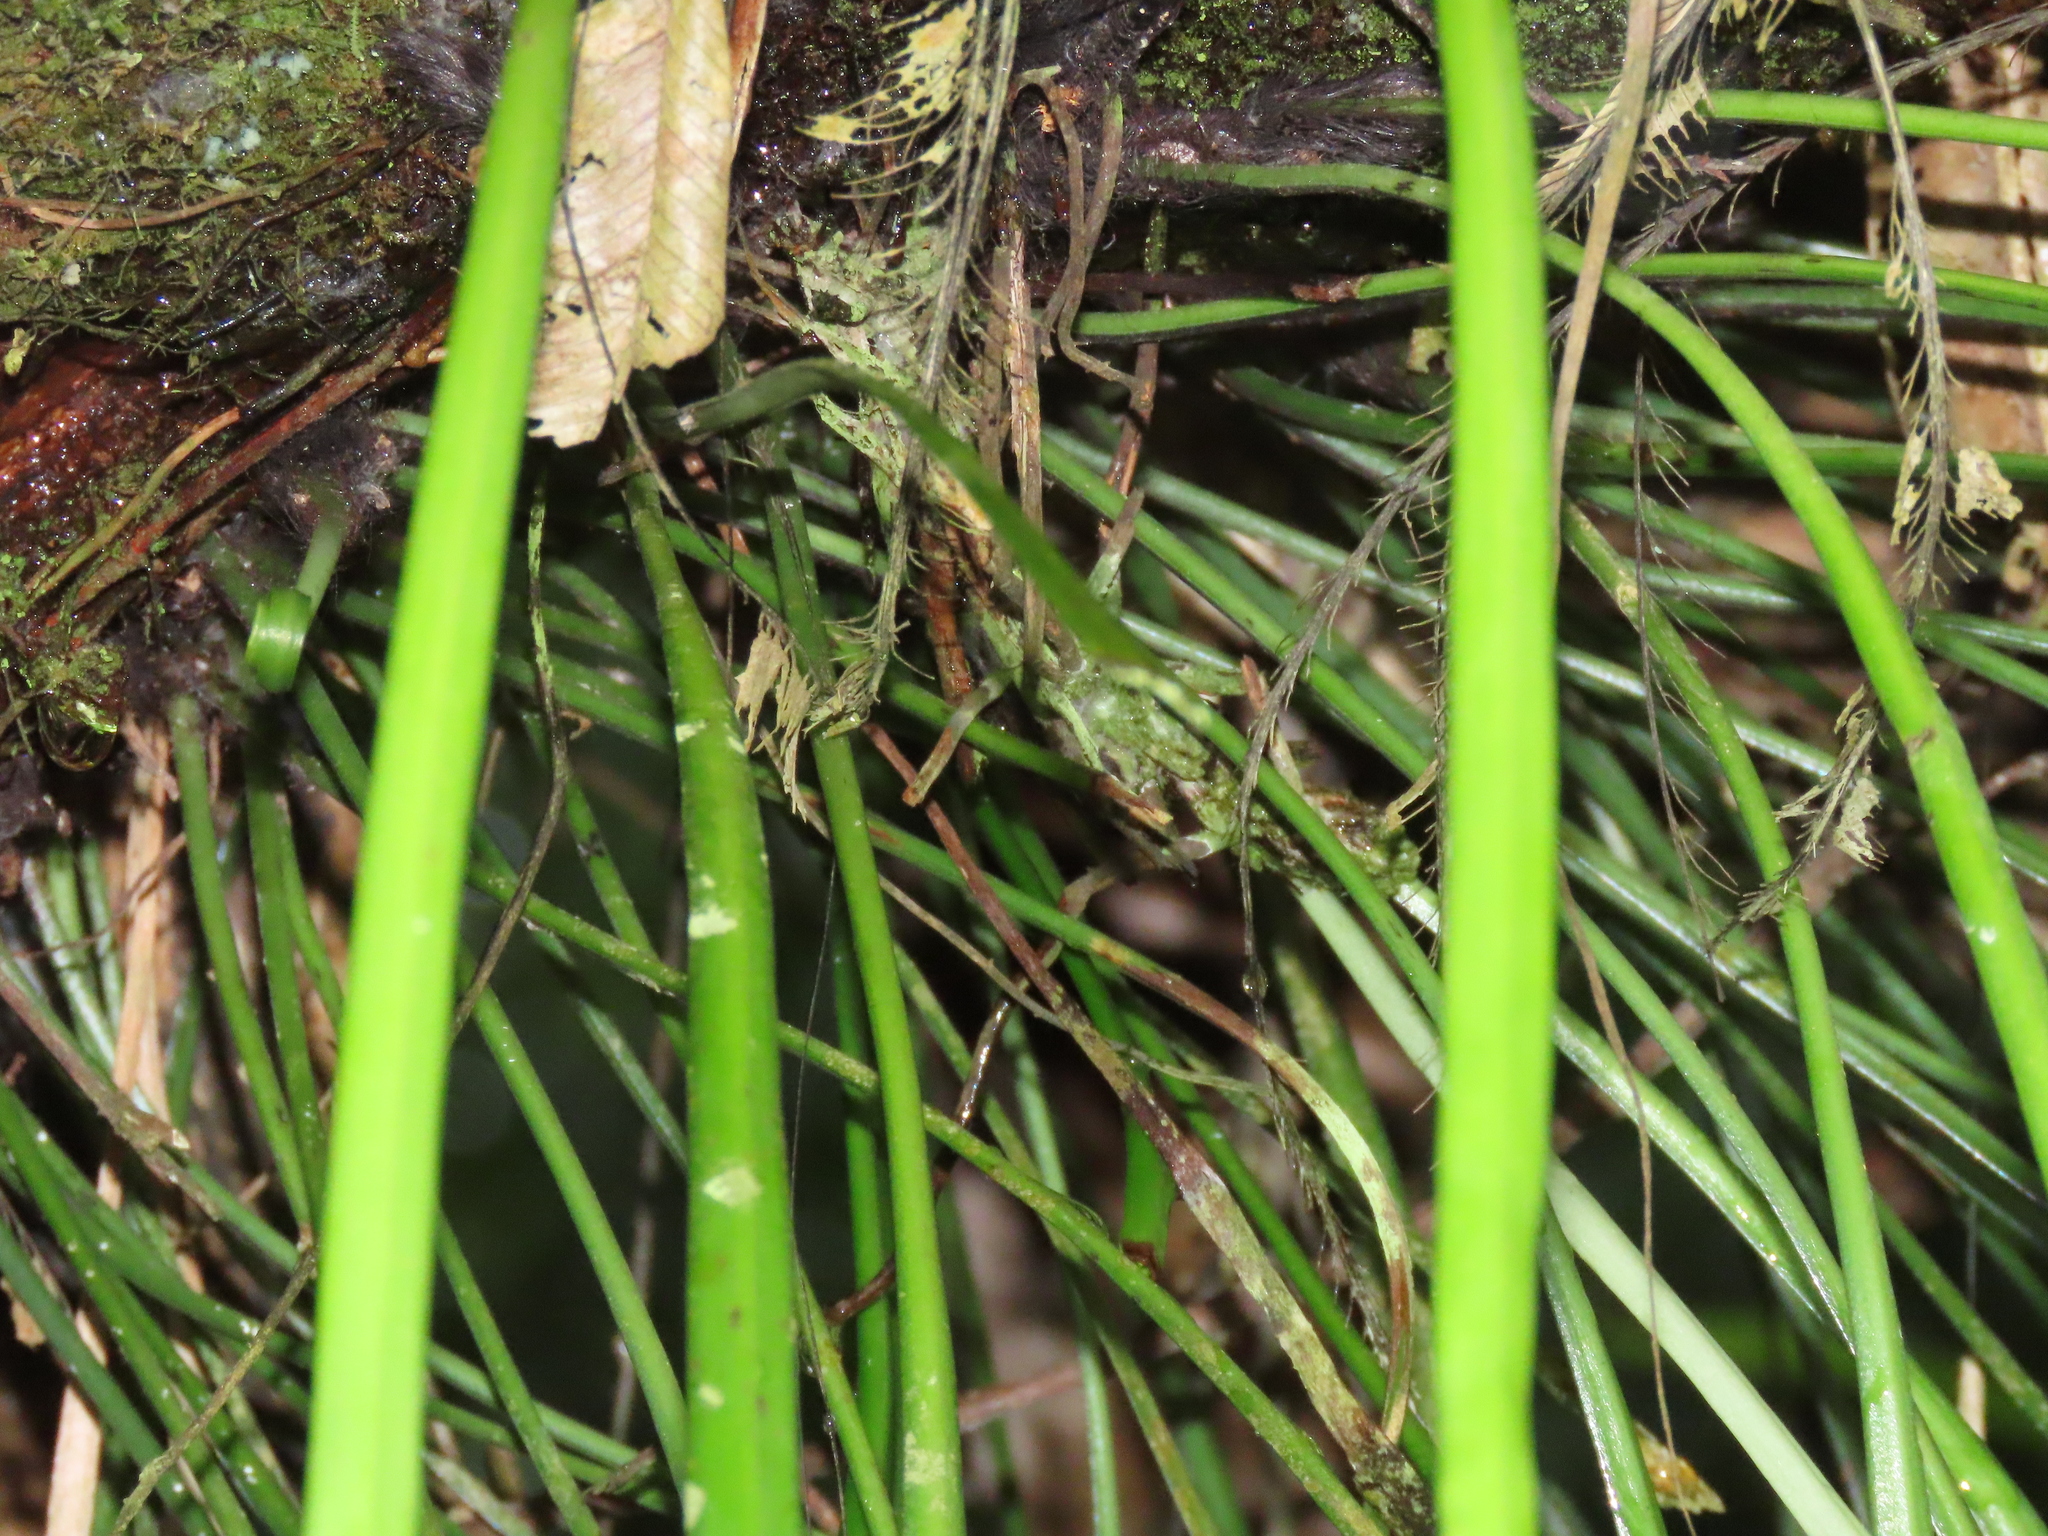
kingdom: Plantae
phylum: Tracheophyta
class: Polypodiopsida
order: Polypodiales
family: Pteridaceae
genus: Haplopteris
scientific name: Haplopteris elongata
